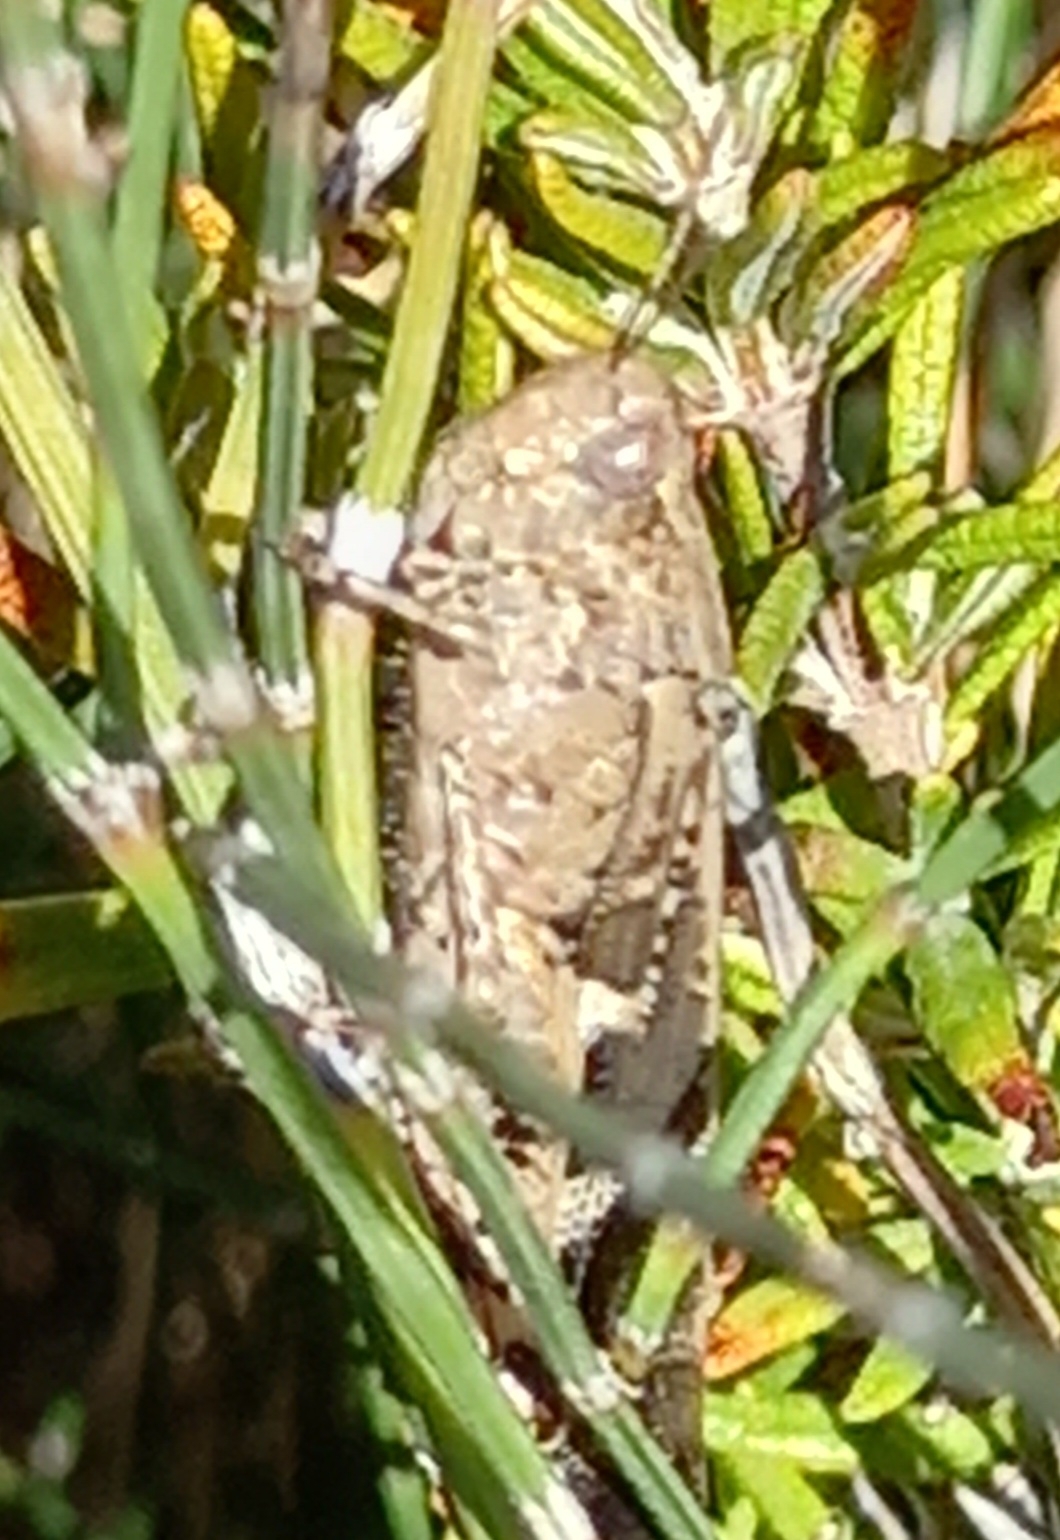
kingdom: Animalia
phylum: Arthropoda
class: Insecta
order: Orthoptera
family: Acrididae
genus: Aiolopus
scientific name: Aiolopus strepens
